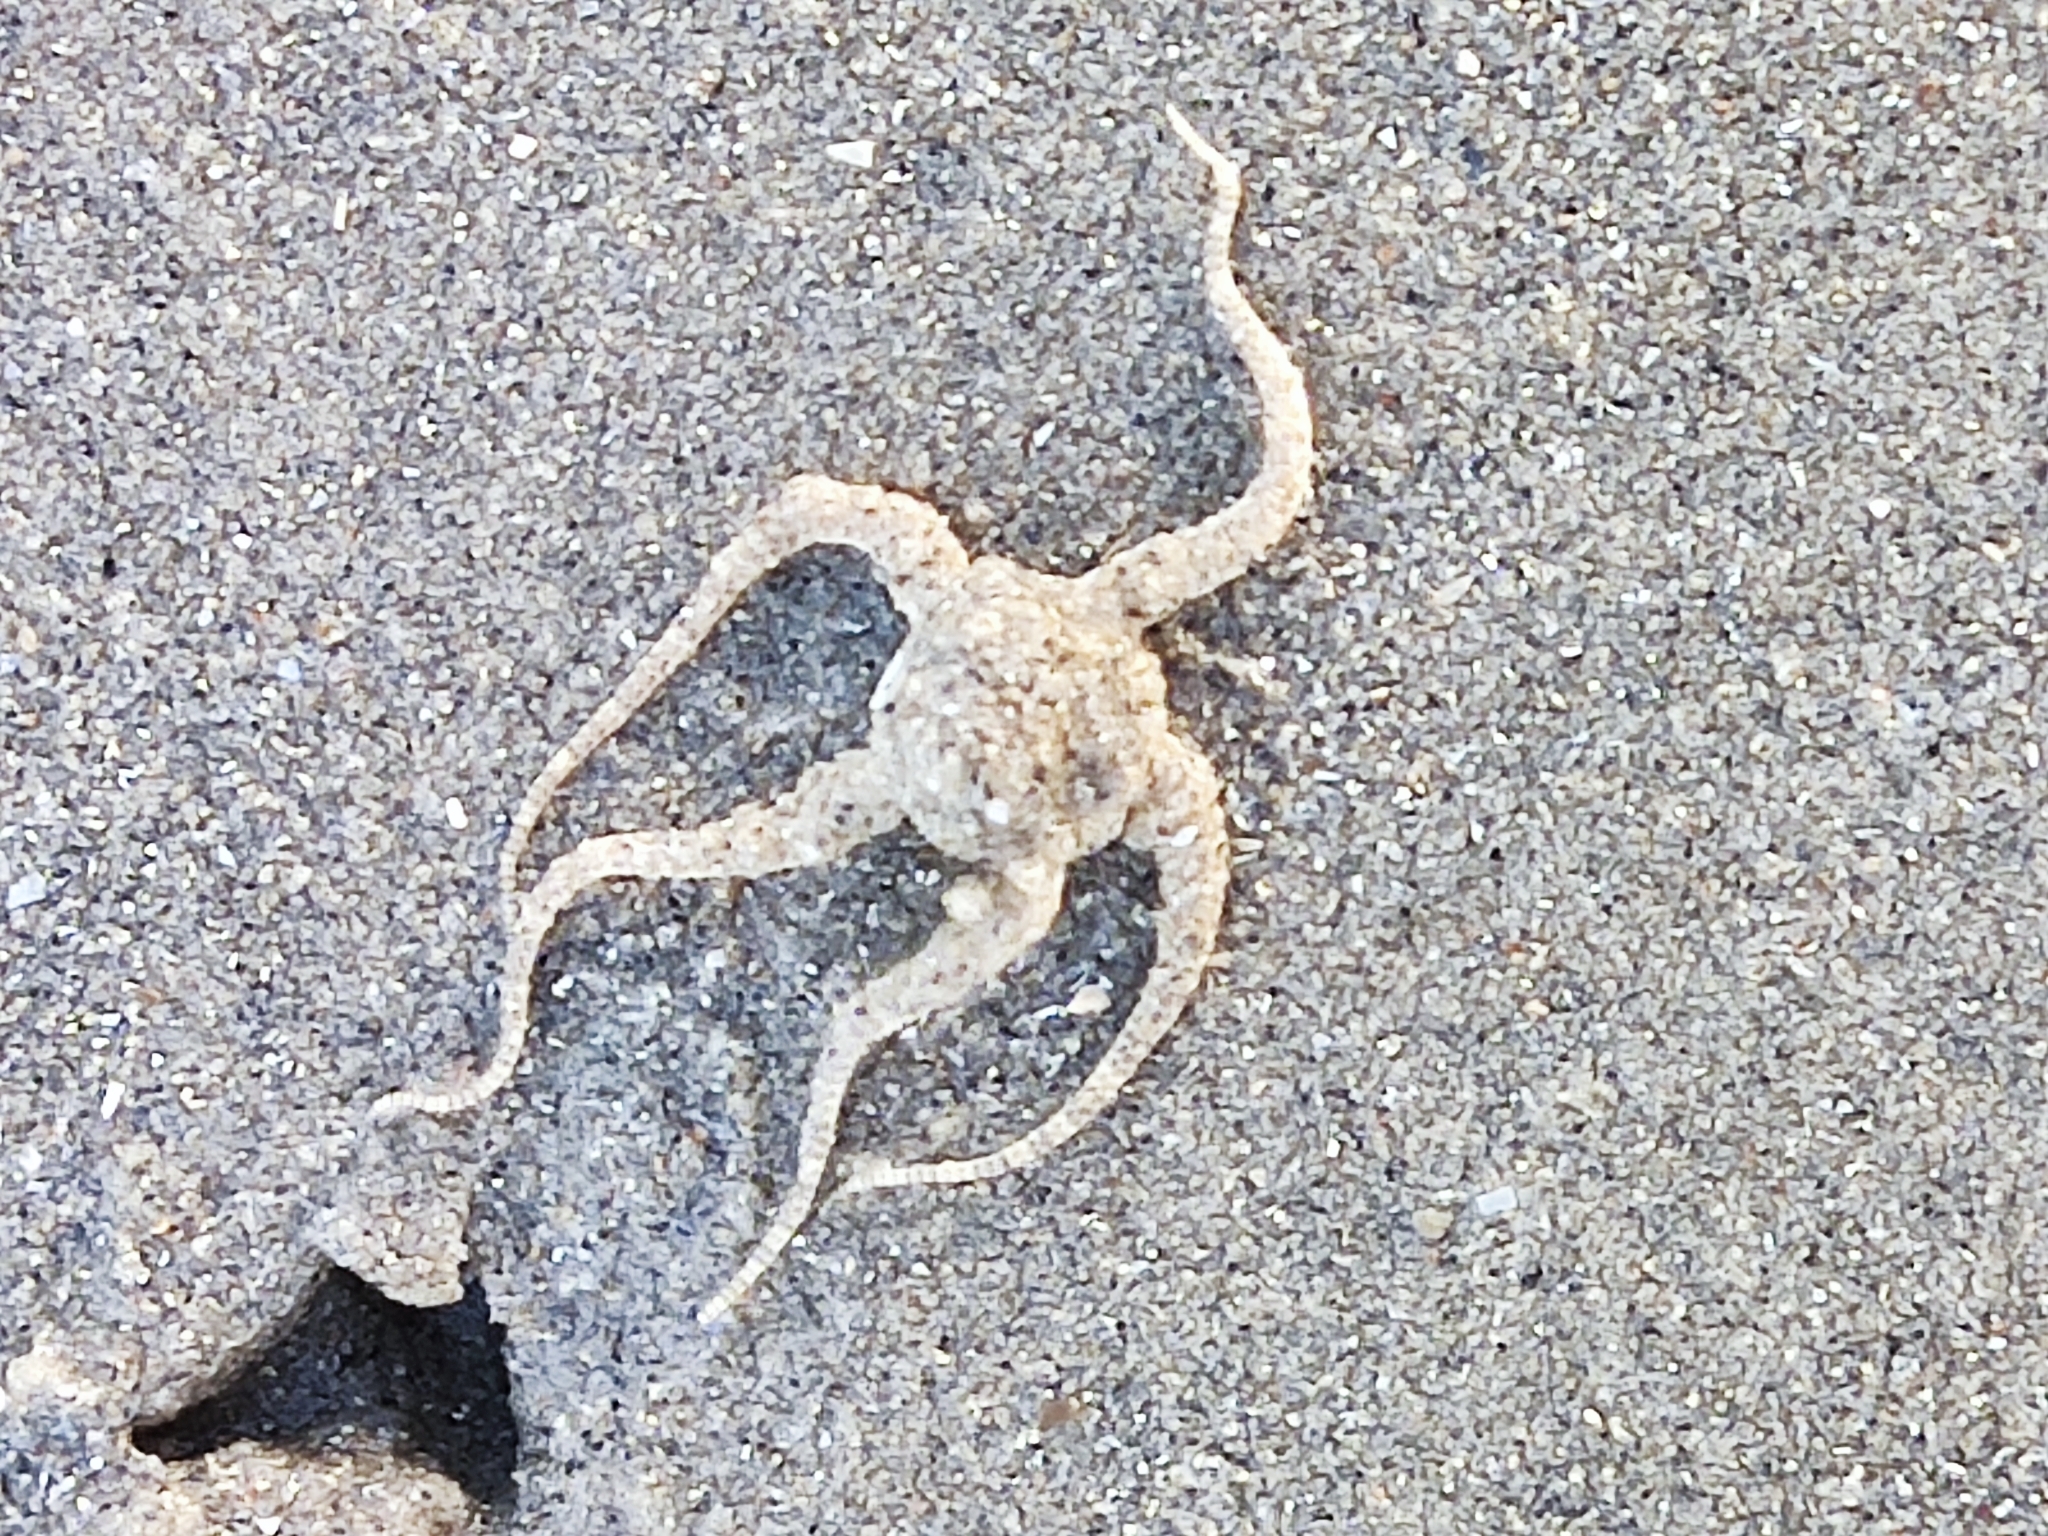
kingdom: Animalia
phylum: Echinodermata
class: Ophiuroidea
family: Ophiuridae
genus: Ophiura
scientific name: Ophiura ophiura
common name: Serpent star
